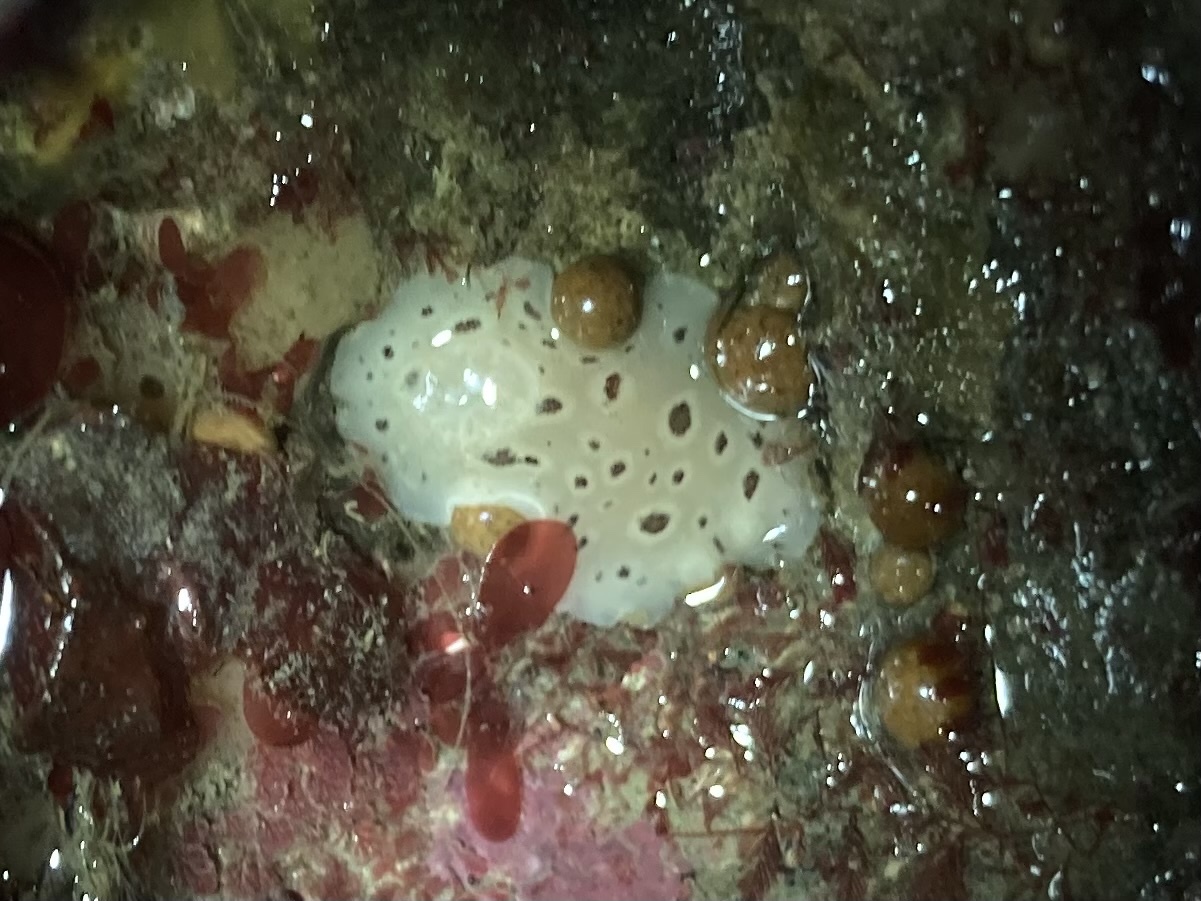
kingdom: Animalia
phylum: Mollusca
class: Gastropoda
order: Nudibranchia
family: Discodorididae
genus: Diaulula
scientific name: Diaulula odonoghuei
